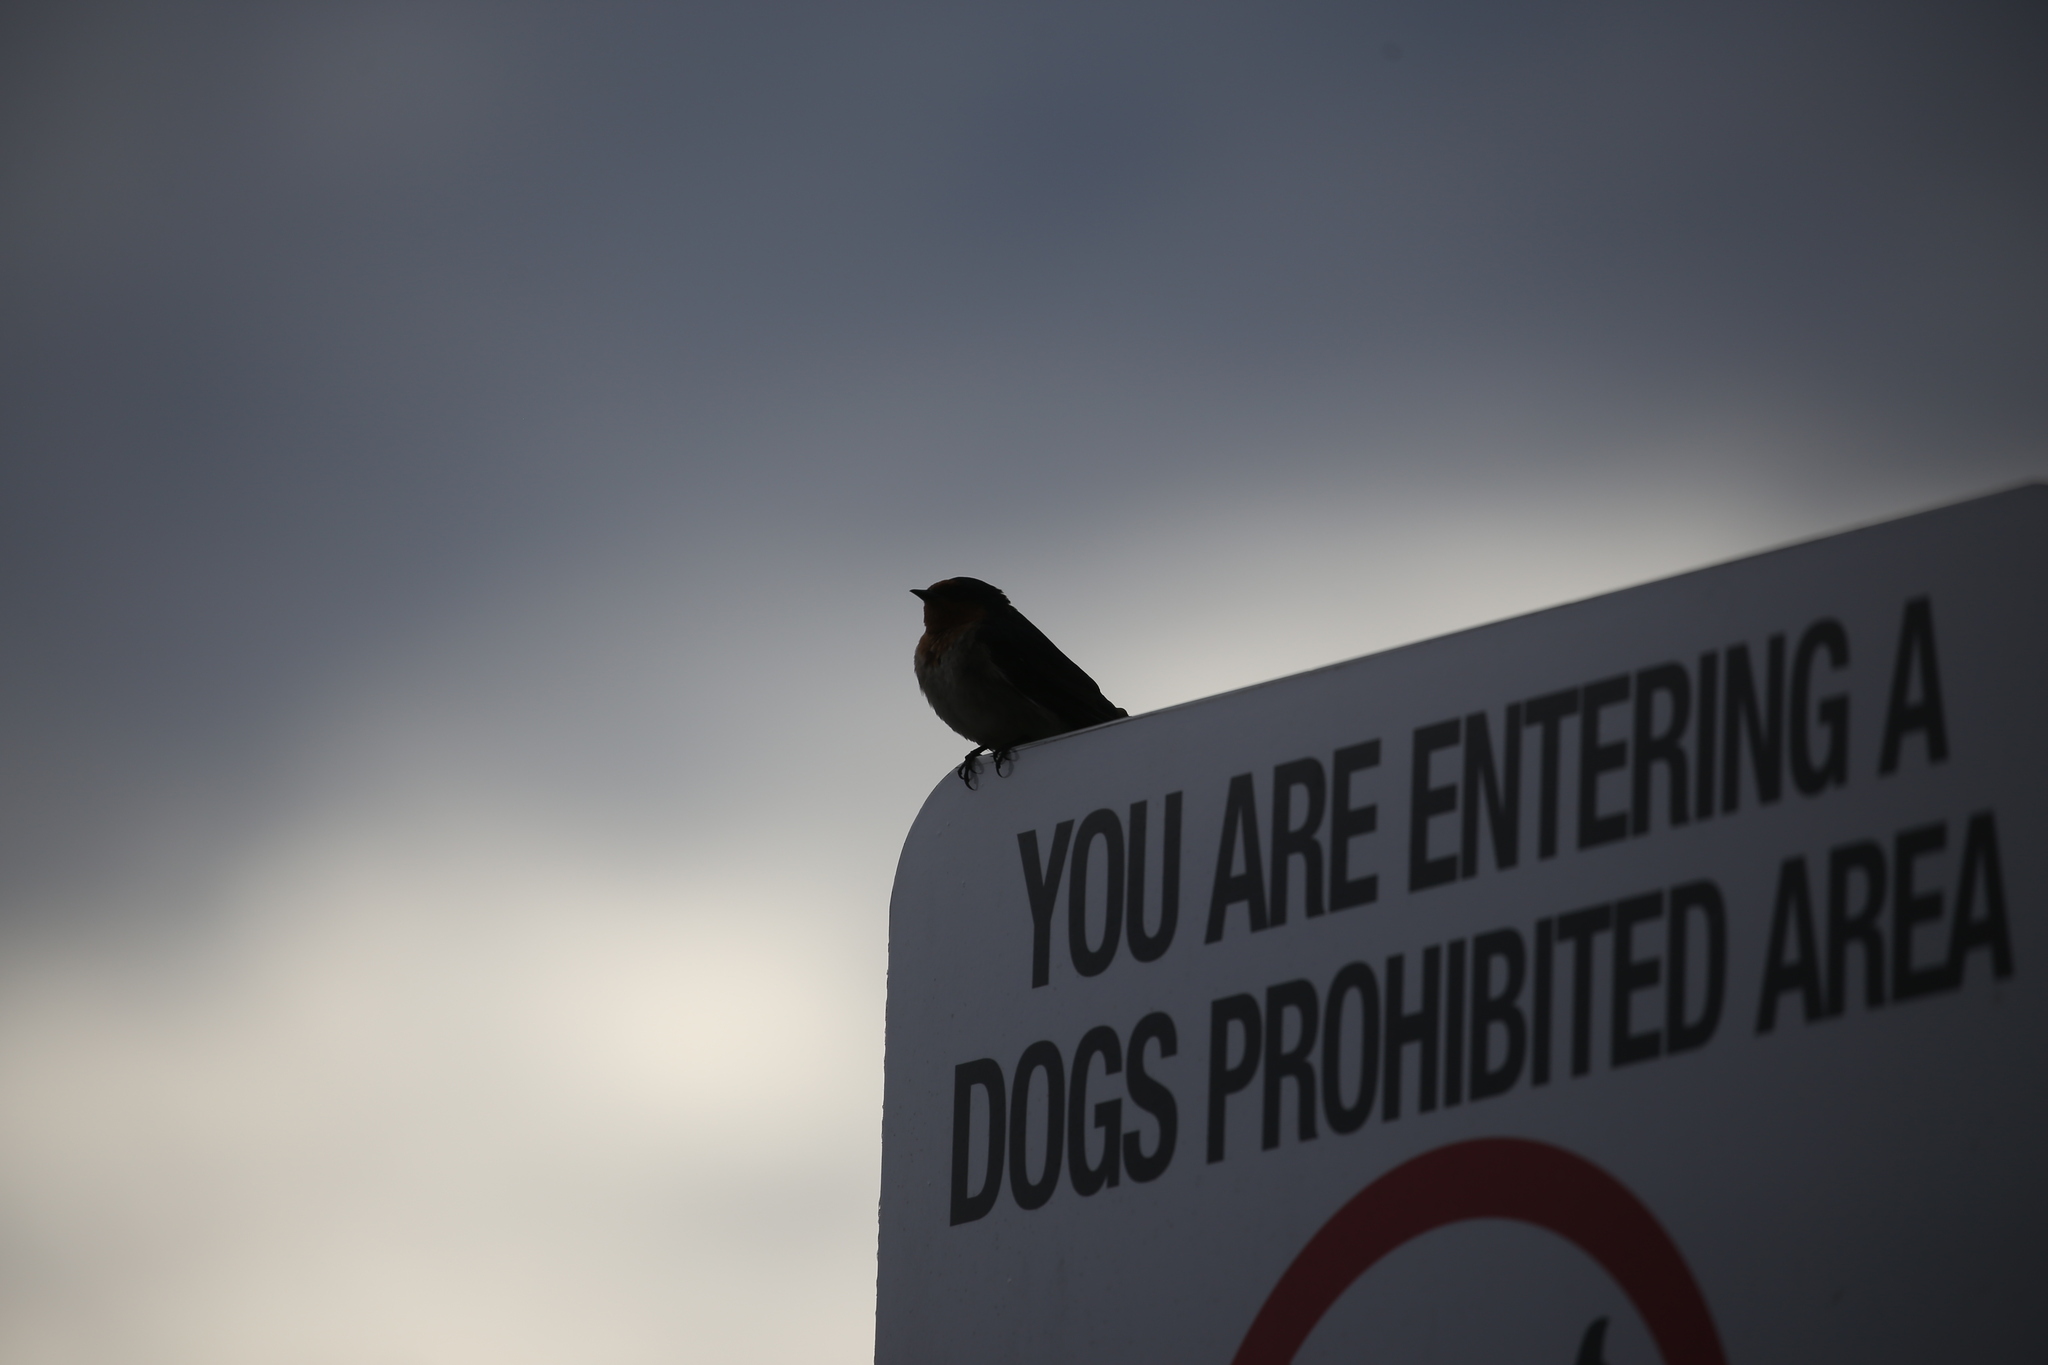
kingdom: Animalia
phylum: Chordata
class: Aves
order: Passeriformes
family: Hirundinidae
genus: Hirundo
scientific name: Hirundo neoxena
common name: Welcome swallow
